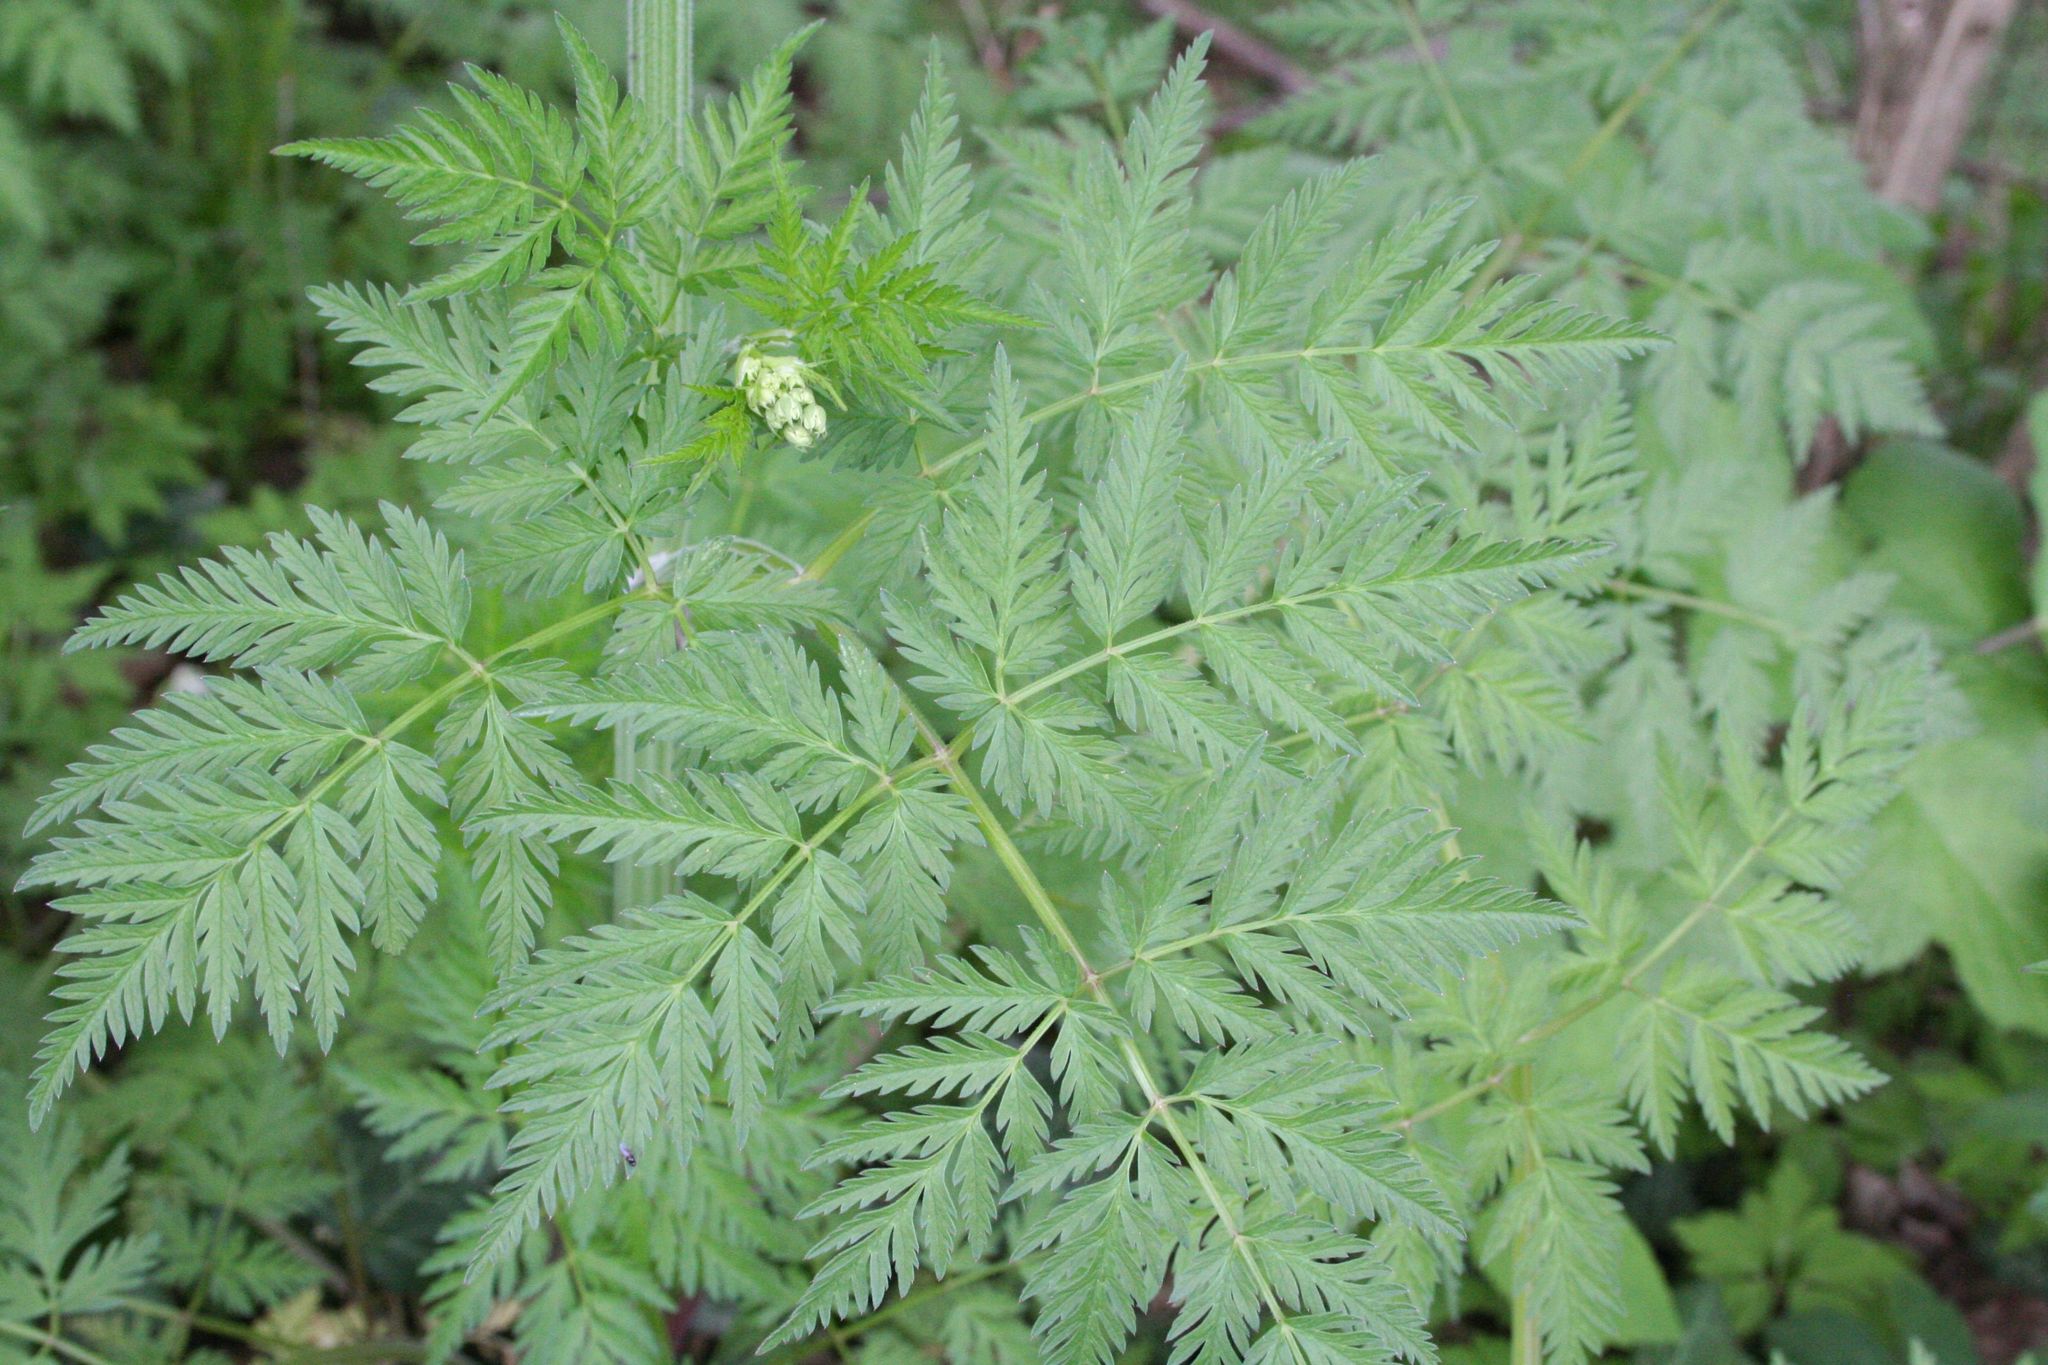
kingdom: Plantae
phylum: Tracheophyta
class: Magnoliopsida
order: Apiales
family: Apiaceae
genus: Anthriscus
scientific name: Anthriscus sylvestris
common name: Cow parsley
